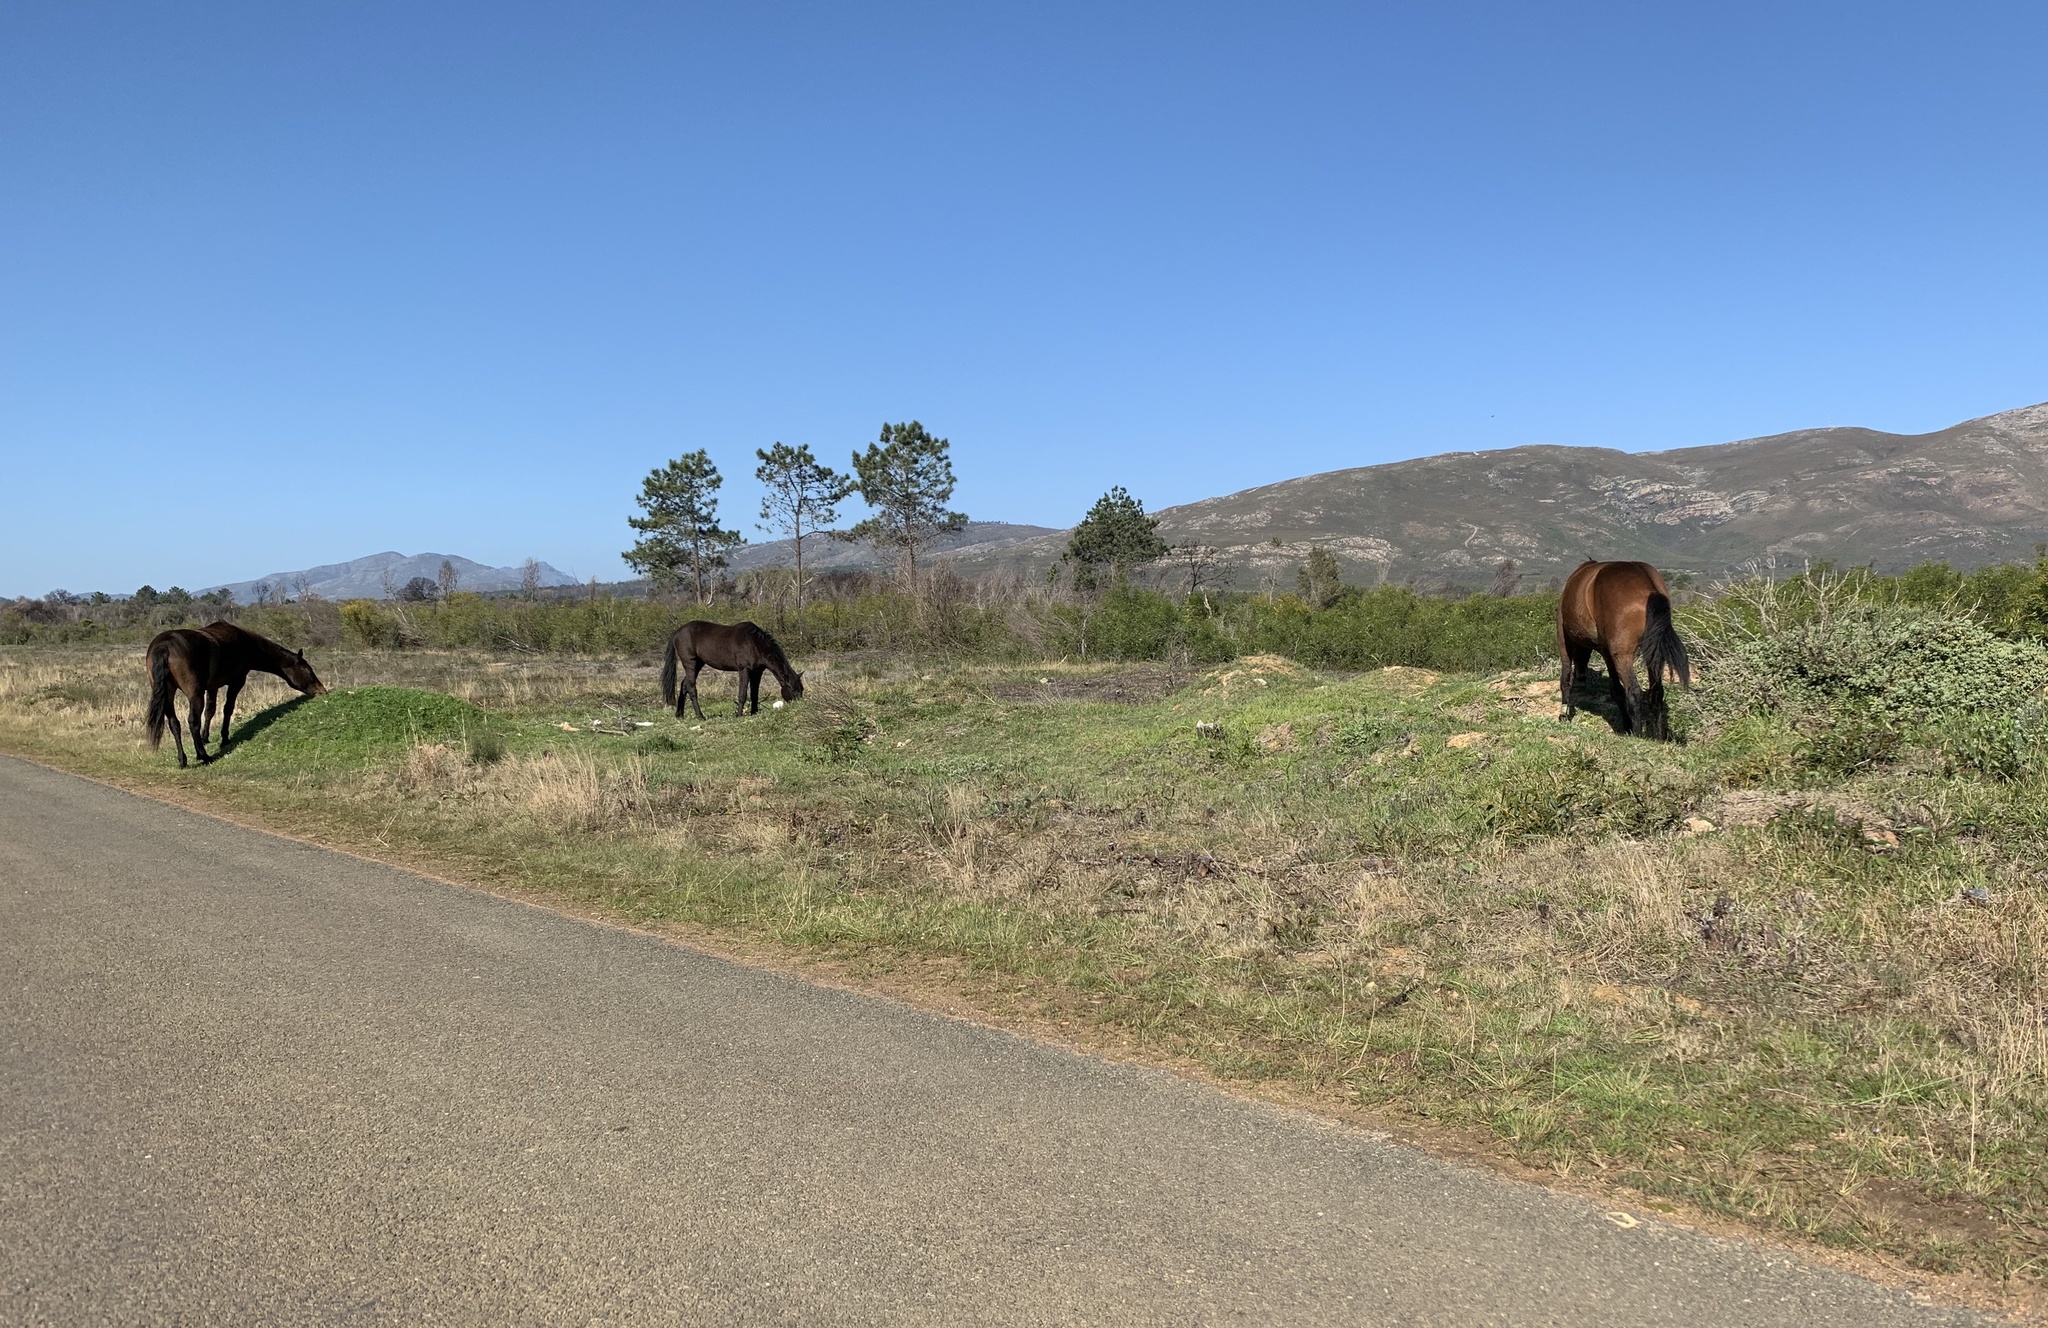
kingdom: Animalia
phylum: Chordata
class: Mammalia
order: Perissodactyla
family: Equidae
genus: Equus
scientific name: Equus caballus
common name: Horse
